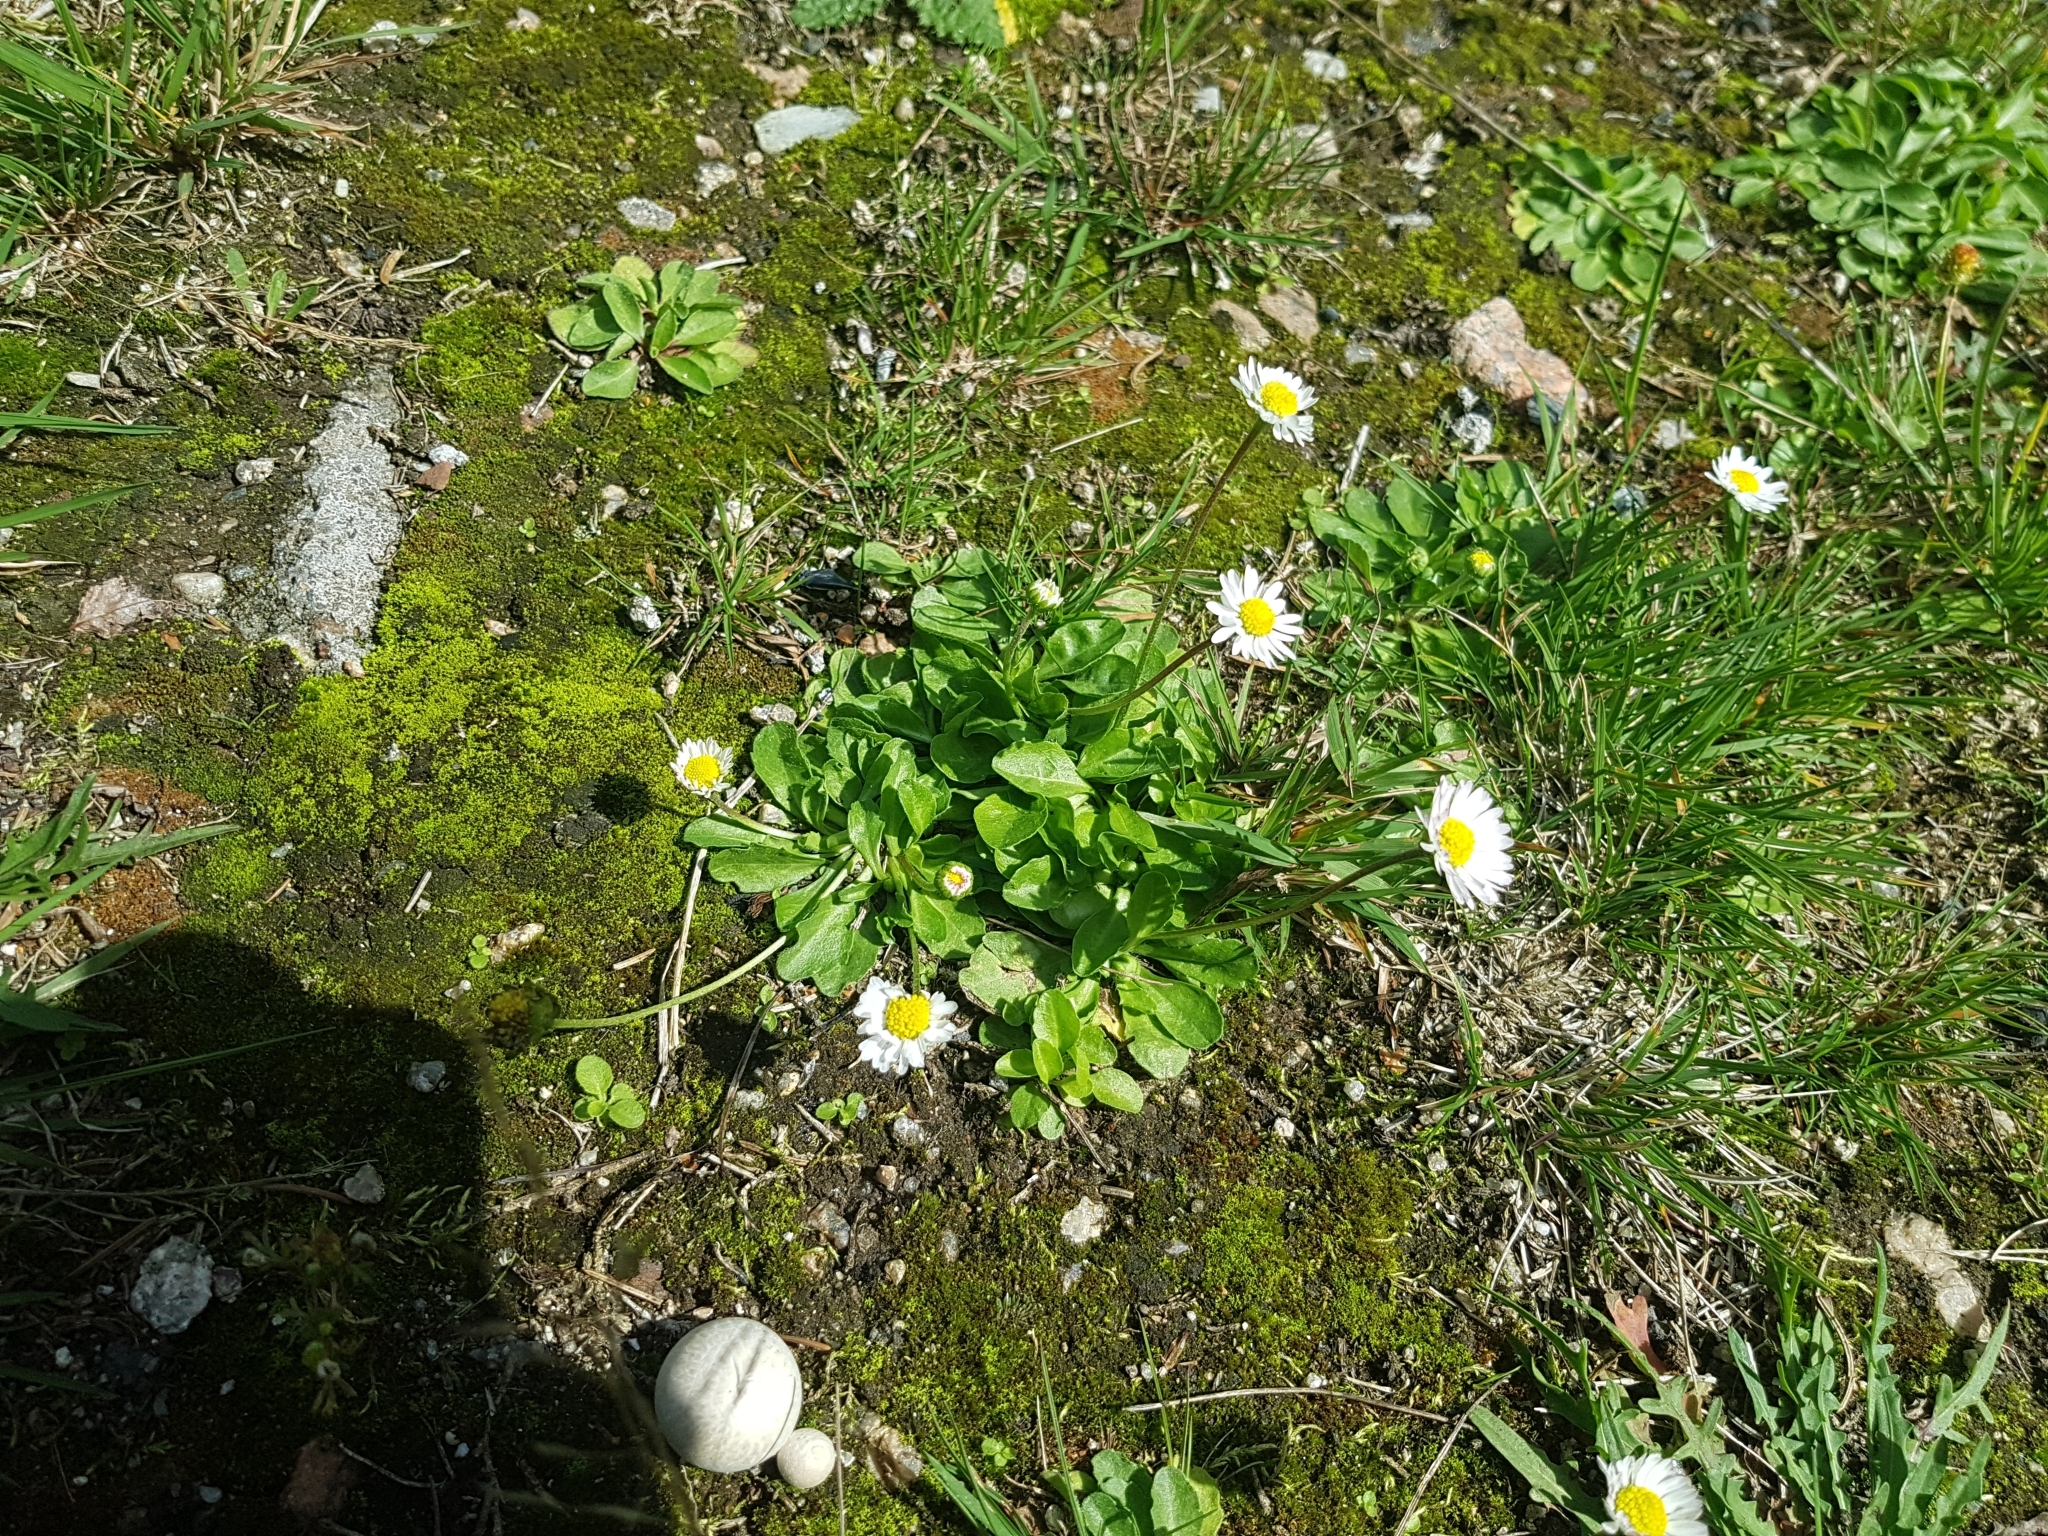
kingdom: Plantae
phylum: Tracheophyta
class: Magnoliopsida
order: Asterales
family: Asteraceae
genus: Bellis
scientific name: Bellis perennis
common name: Lawndaisy
